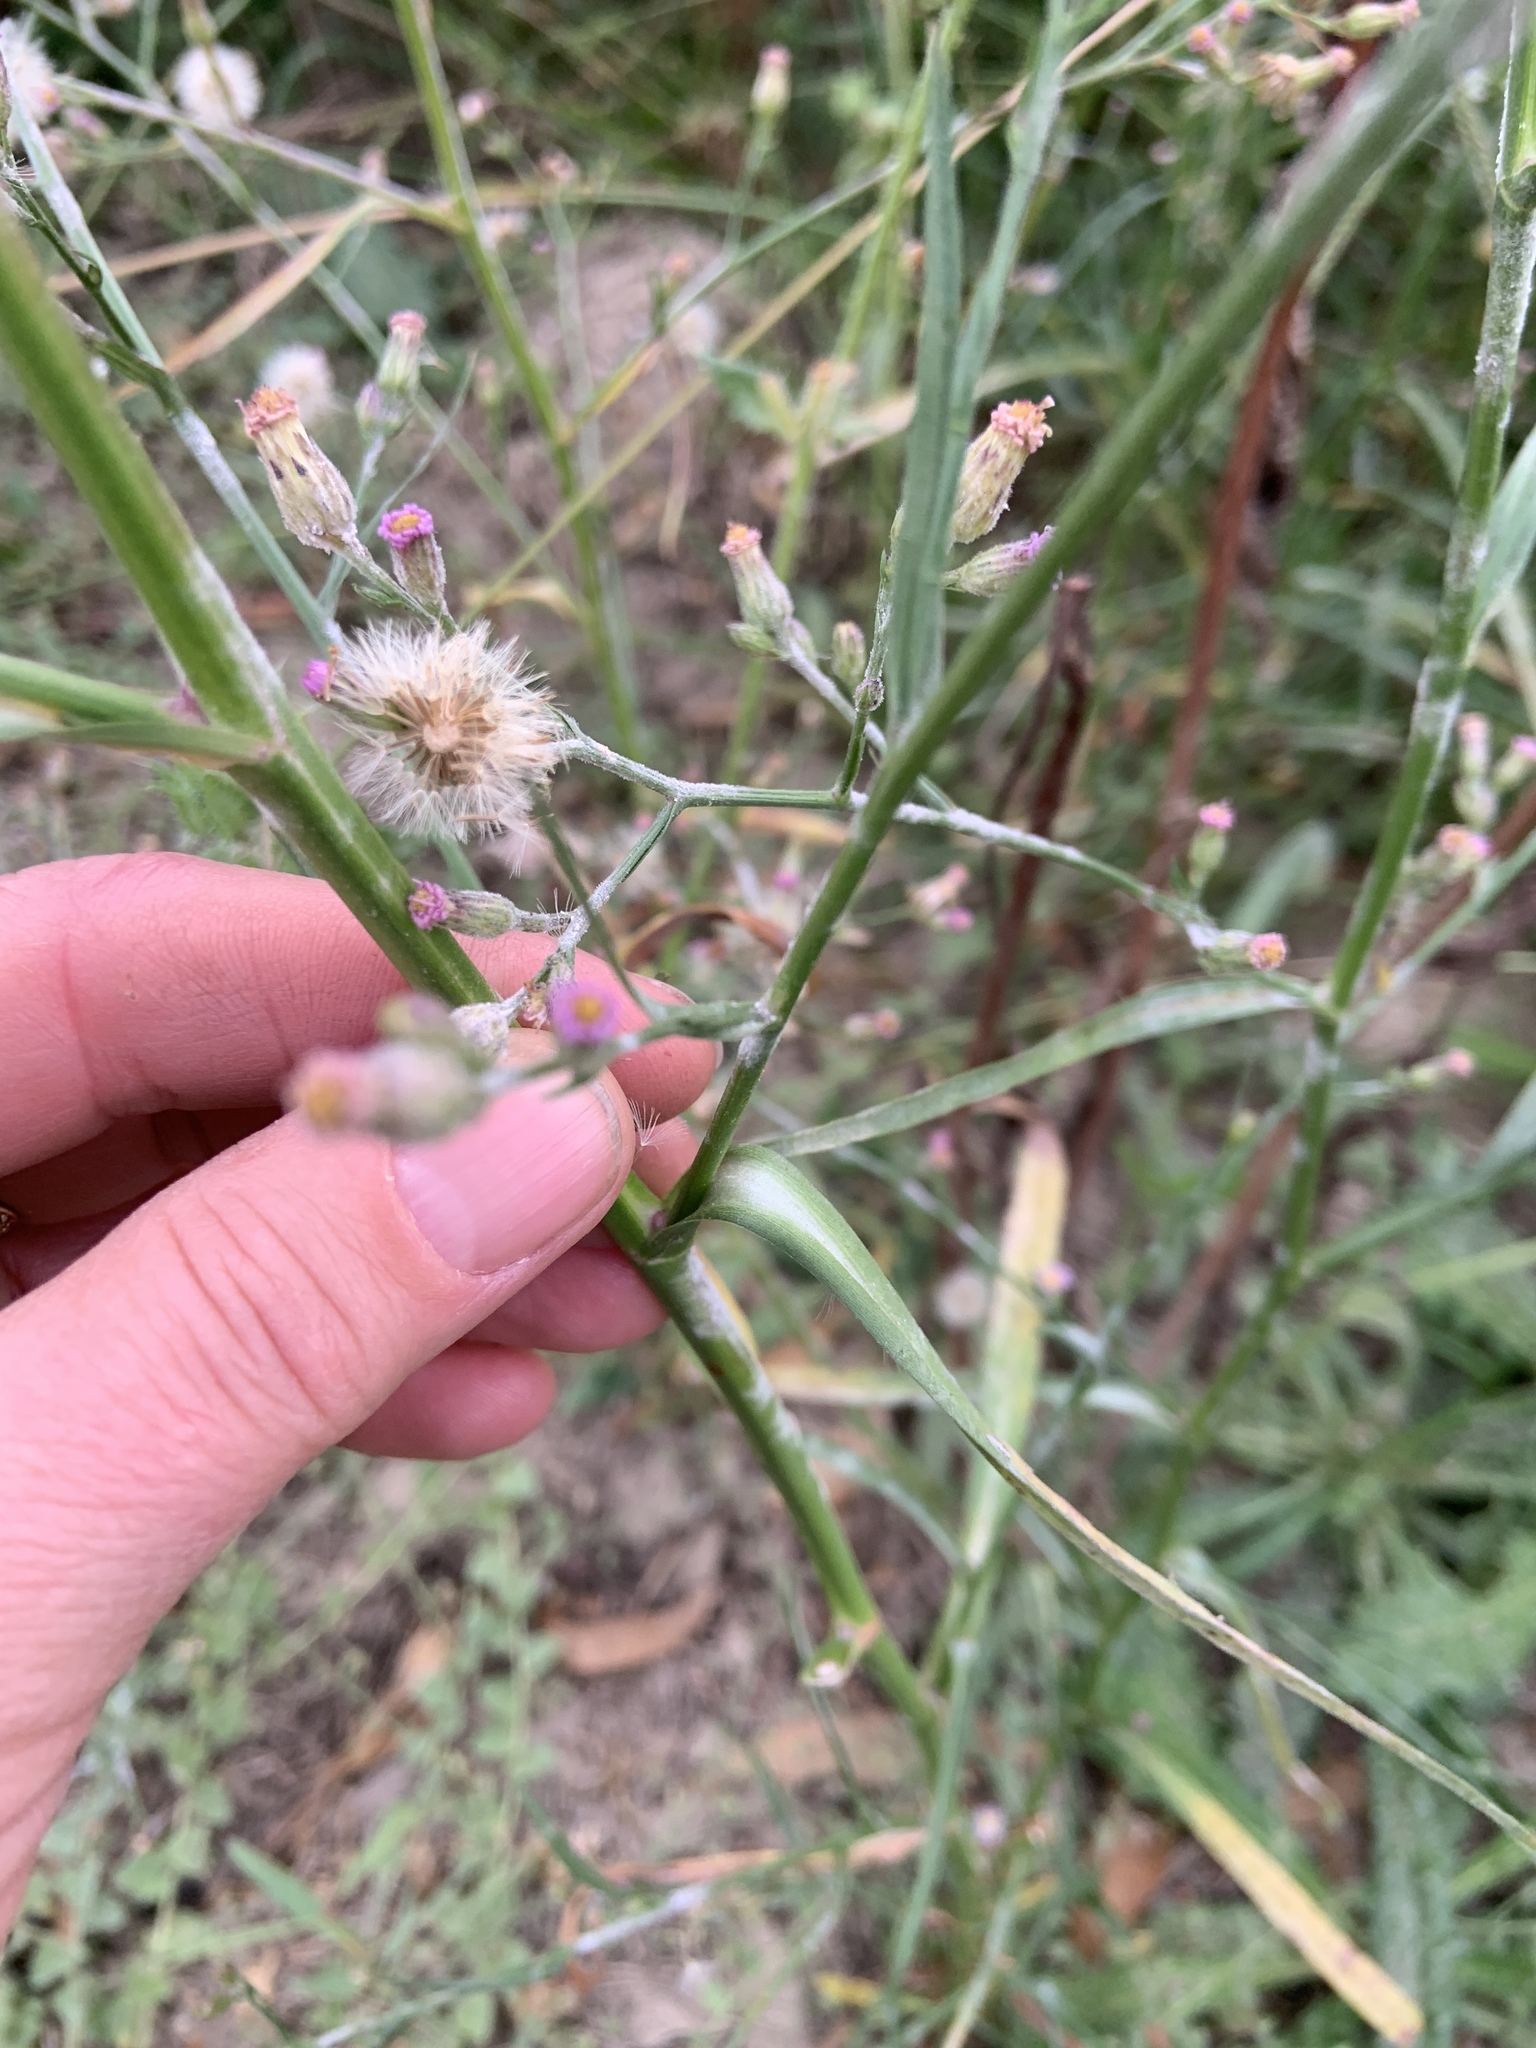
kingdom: Plantae
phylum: Tracheophyta
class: Magnoliopsida
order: Asterales
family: Asteraceae
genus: Symphyotrichum
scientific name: Symphyotrichum subulatum
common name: Annual saltmarsh aster
